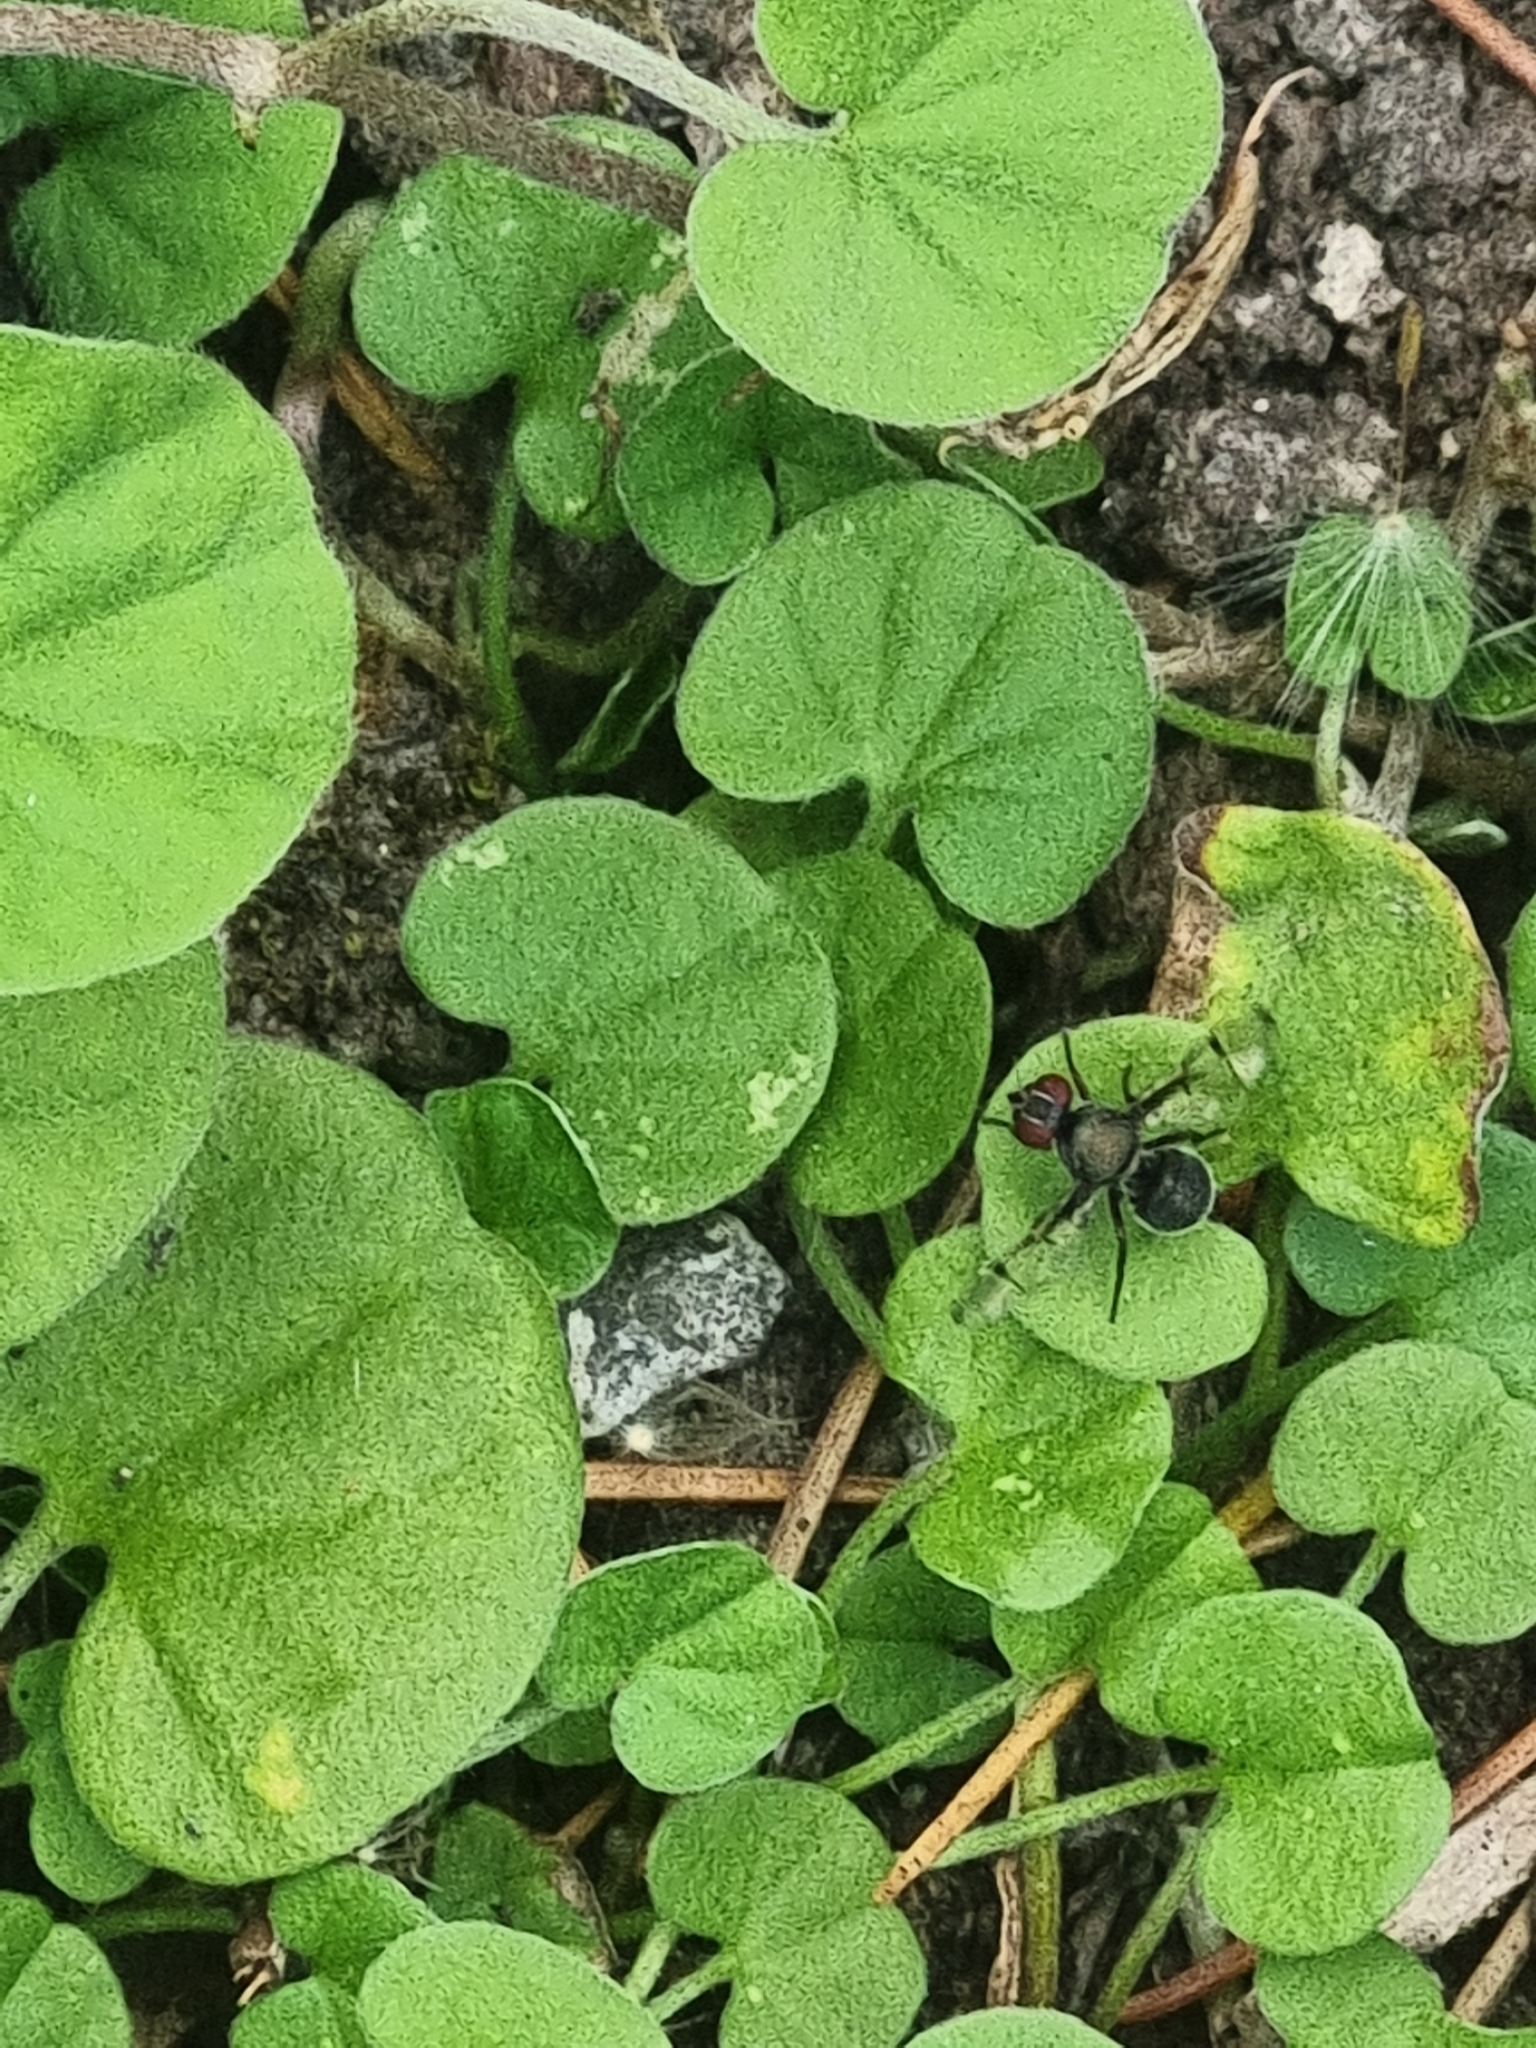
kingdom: Animalia
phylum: Arthropoda
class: Insecta
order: Diptera
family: Platystomatidae
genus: Pogonortalis
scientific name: Pogonortalis doclea
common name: Boatman fly
